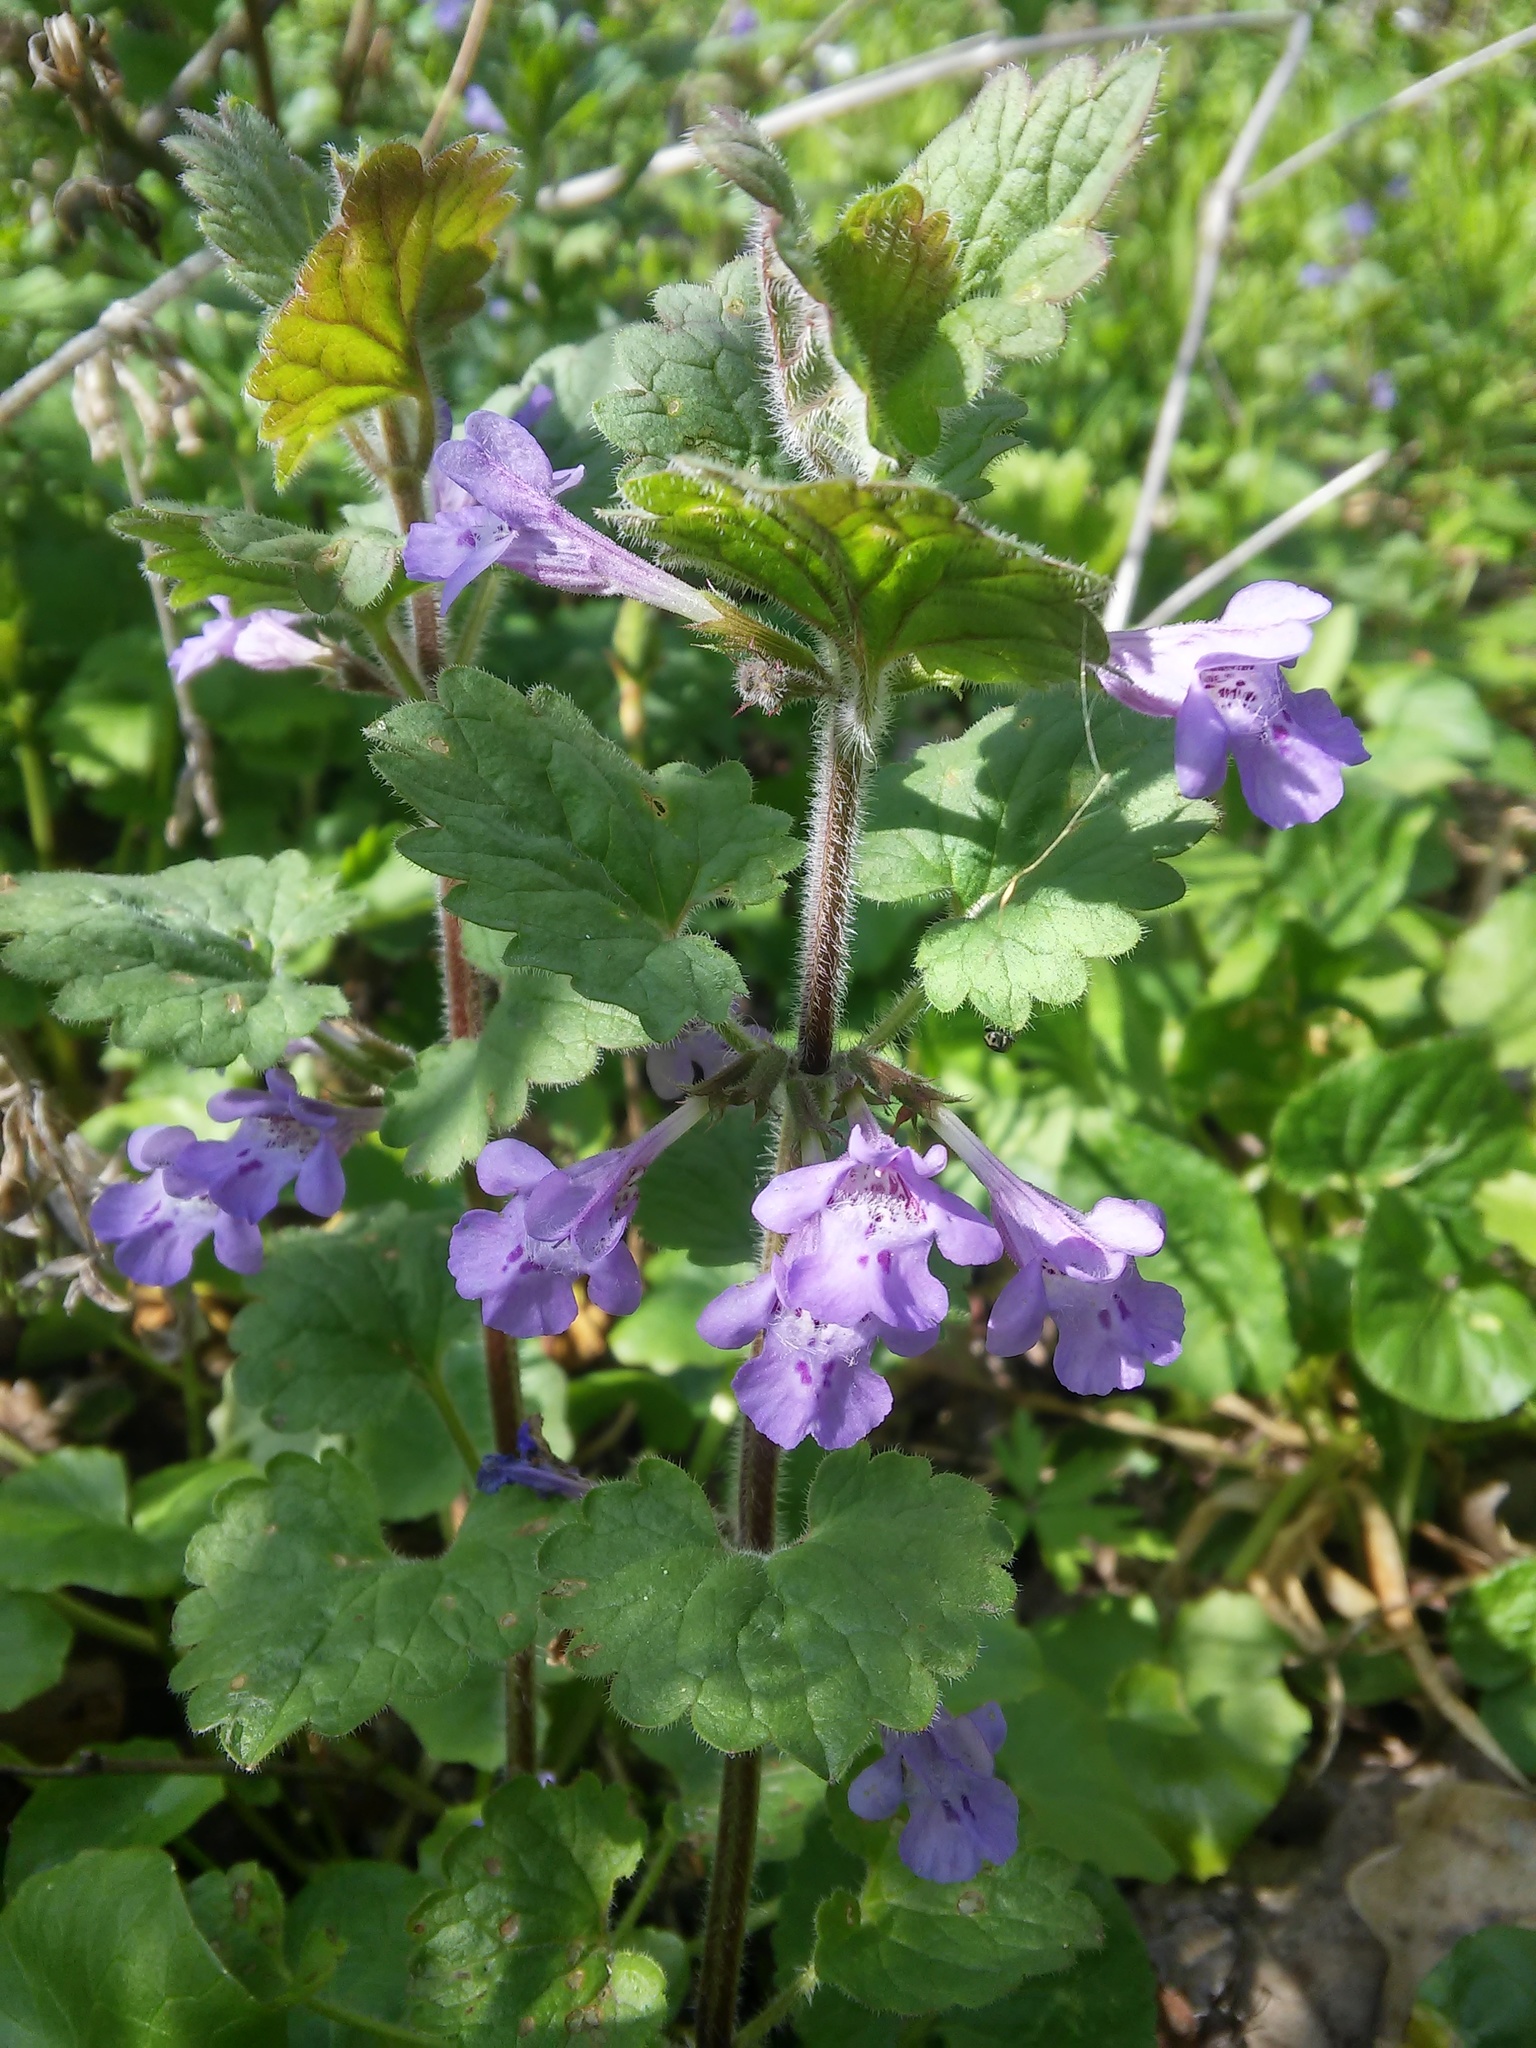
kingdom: Plantae
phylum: Tracheophyta
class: Magnoliopsida
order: Lamiales
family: Lamiaceae
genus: Glechoma
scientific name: Glechoma hirsuta
